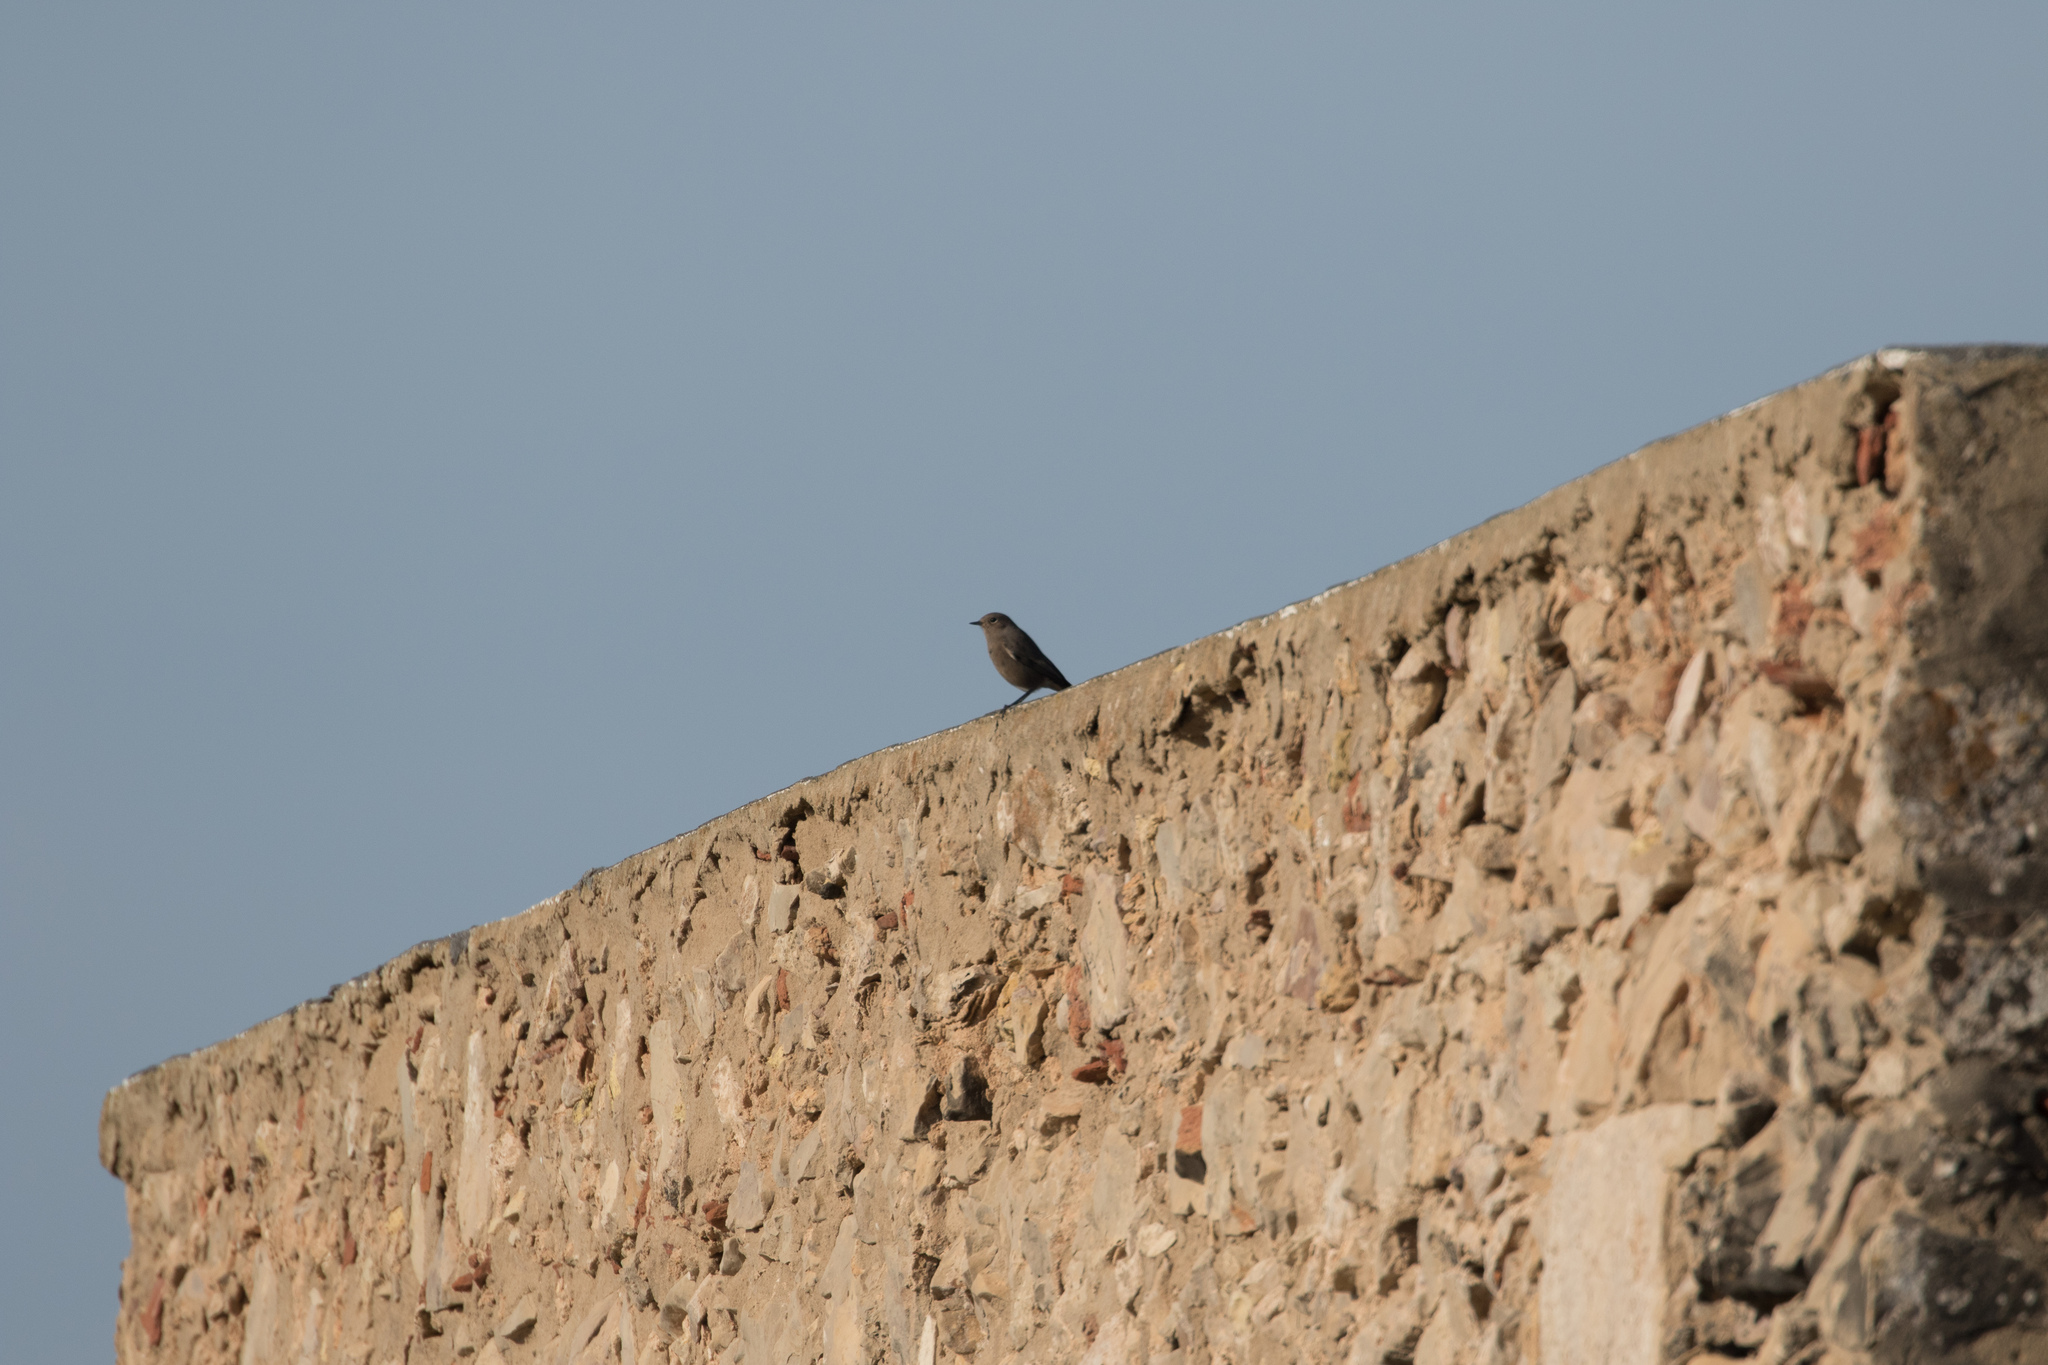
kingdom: Animalia
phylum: Chordata
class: Aves
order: Passeriformes
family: Muscicapidae
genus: Phoenicurus
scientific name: Phoenicurus ochruros
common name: Black redstart
